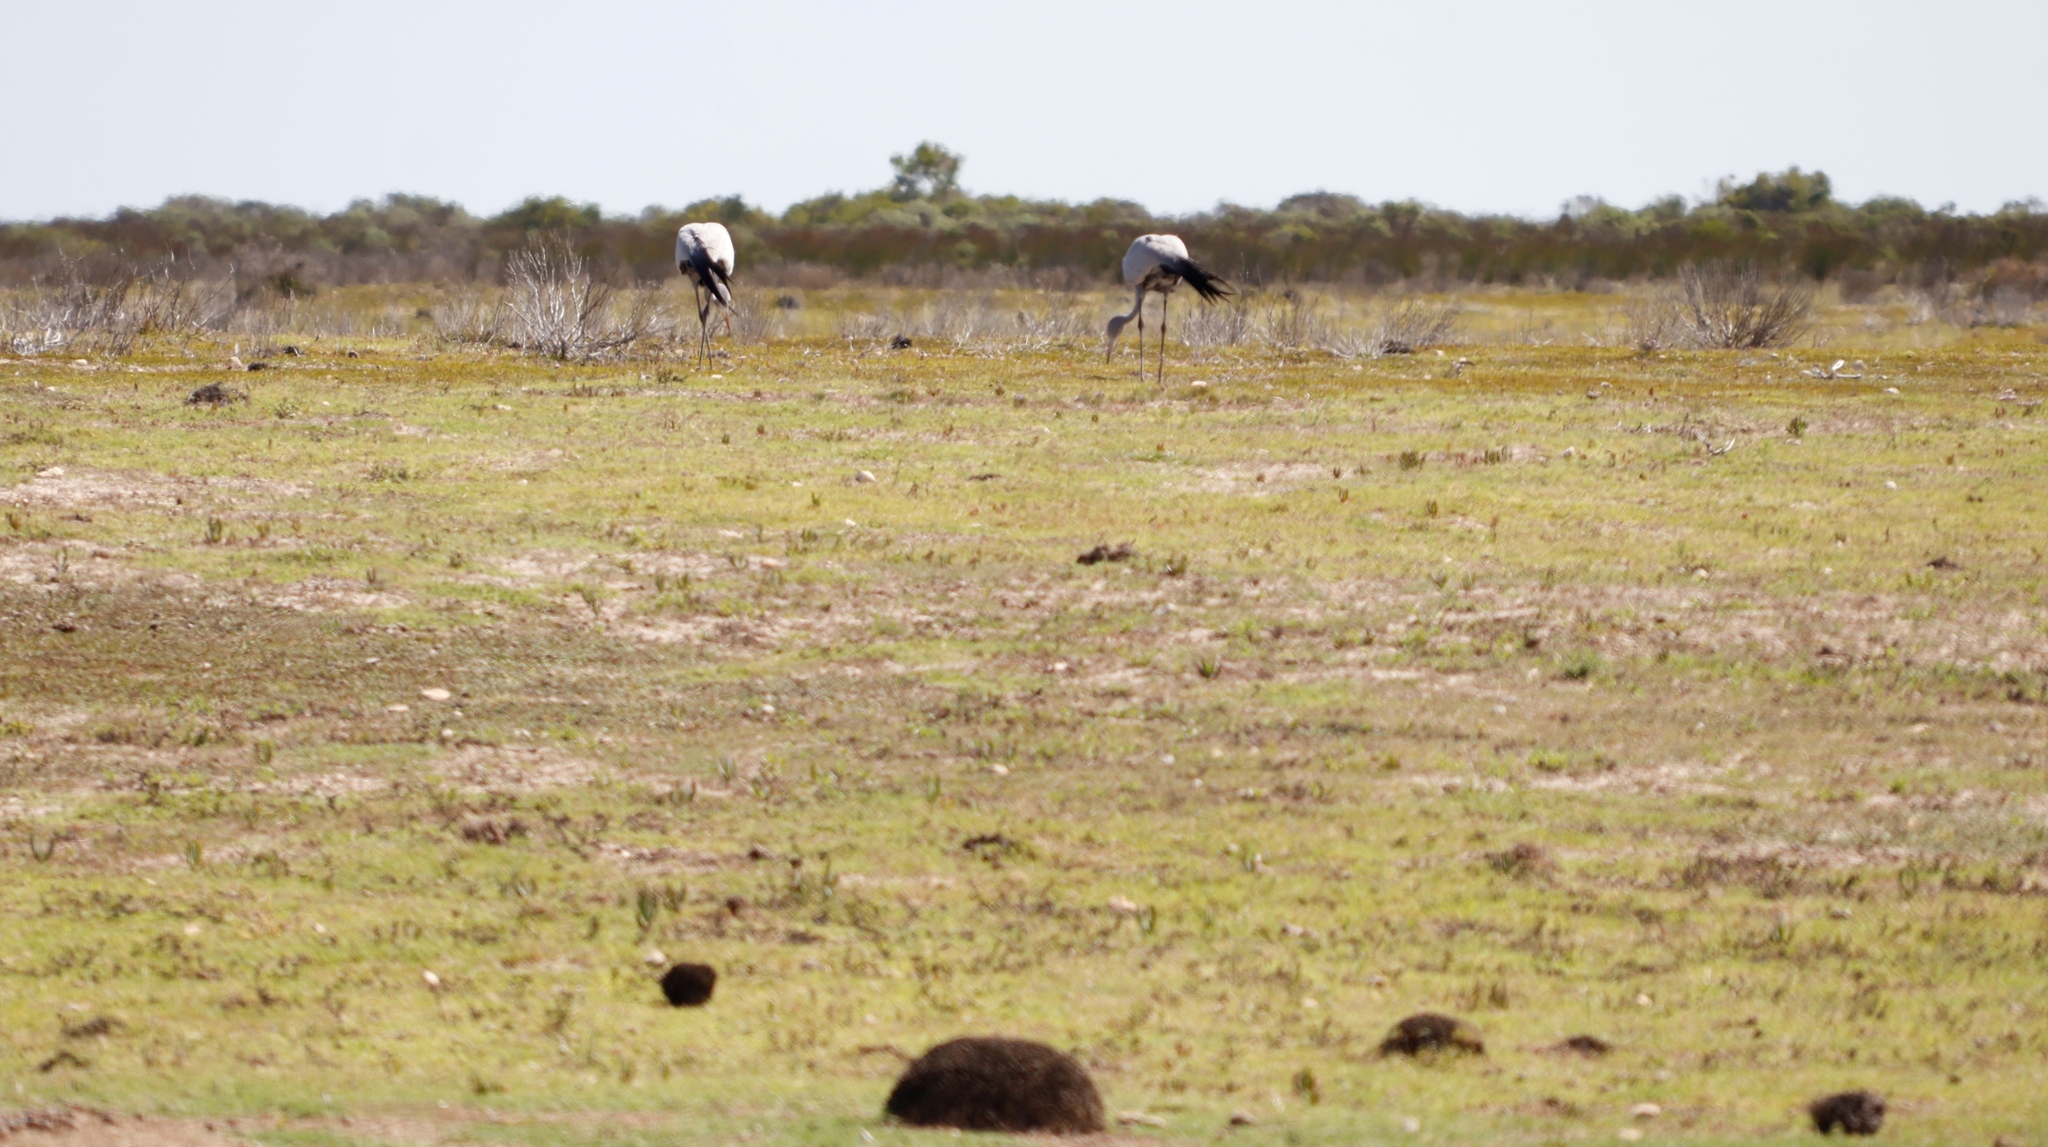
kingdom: Animalia
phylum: Chordata
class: Aves
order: Gruiformes
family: Gruidae
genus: Anthropoides
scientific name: Anthropoides paradiseus
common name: Blue crane
